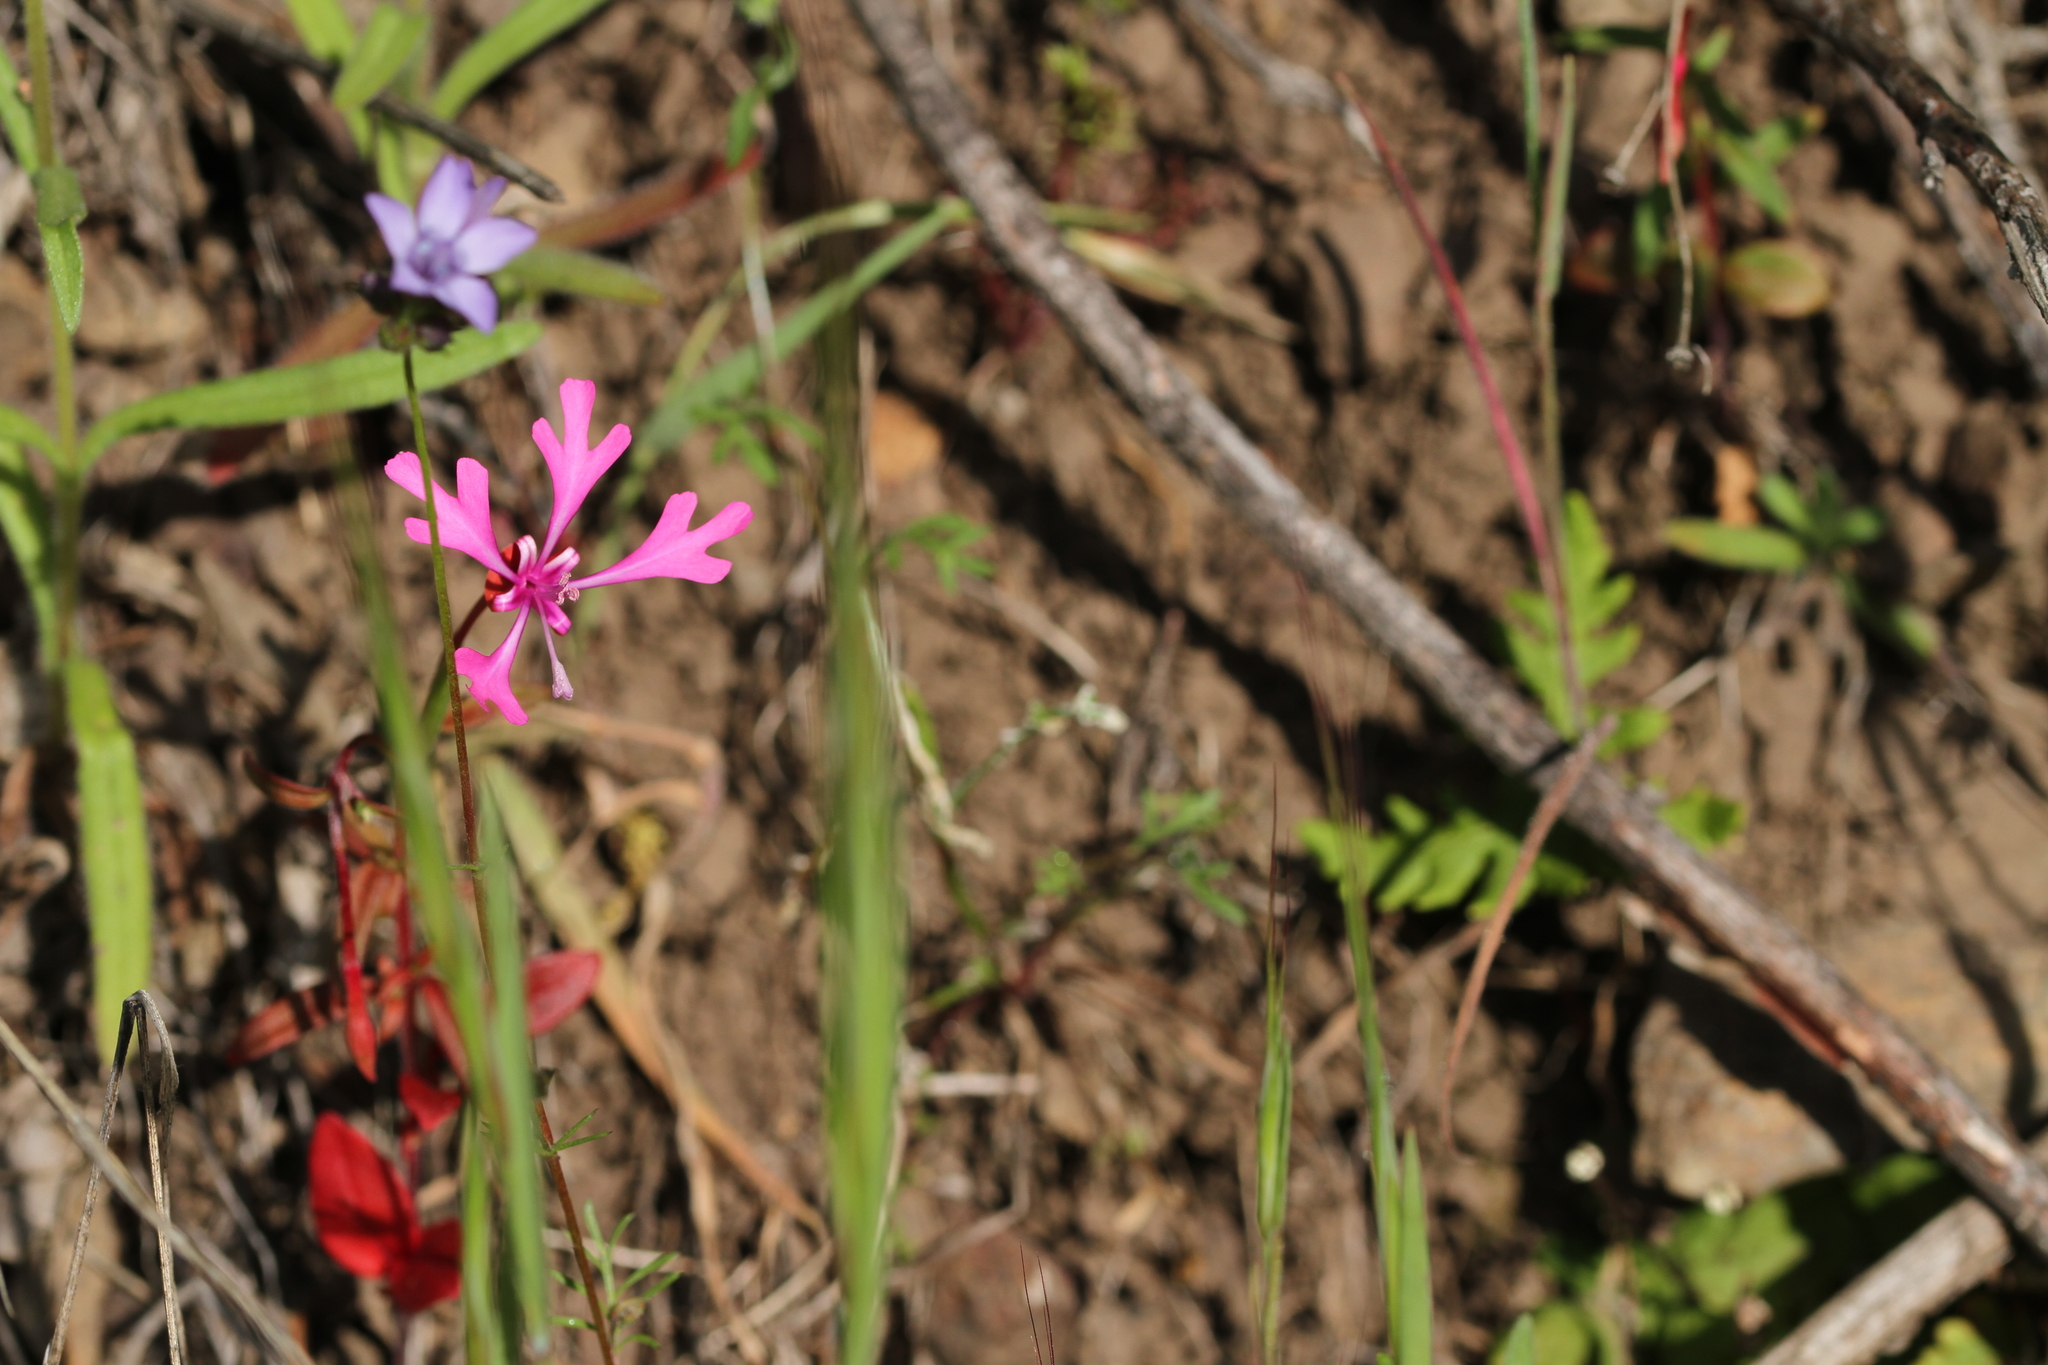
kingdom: Plantae
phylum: Tracheophyta
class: Magnoliopsida
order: Myrtales
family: Onagraceae
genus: Clarkia
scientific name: Clarkia concinna
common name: Red-ribbons
